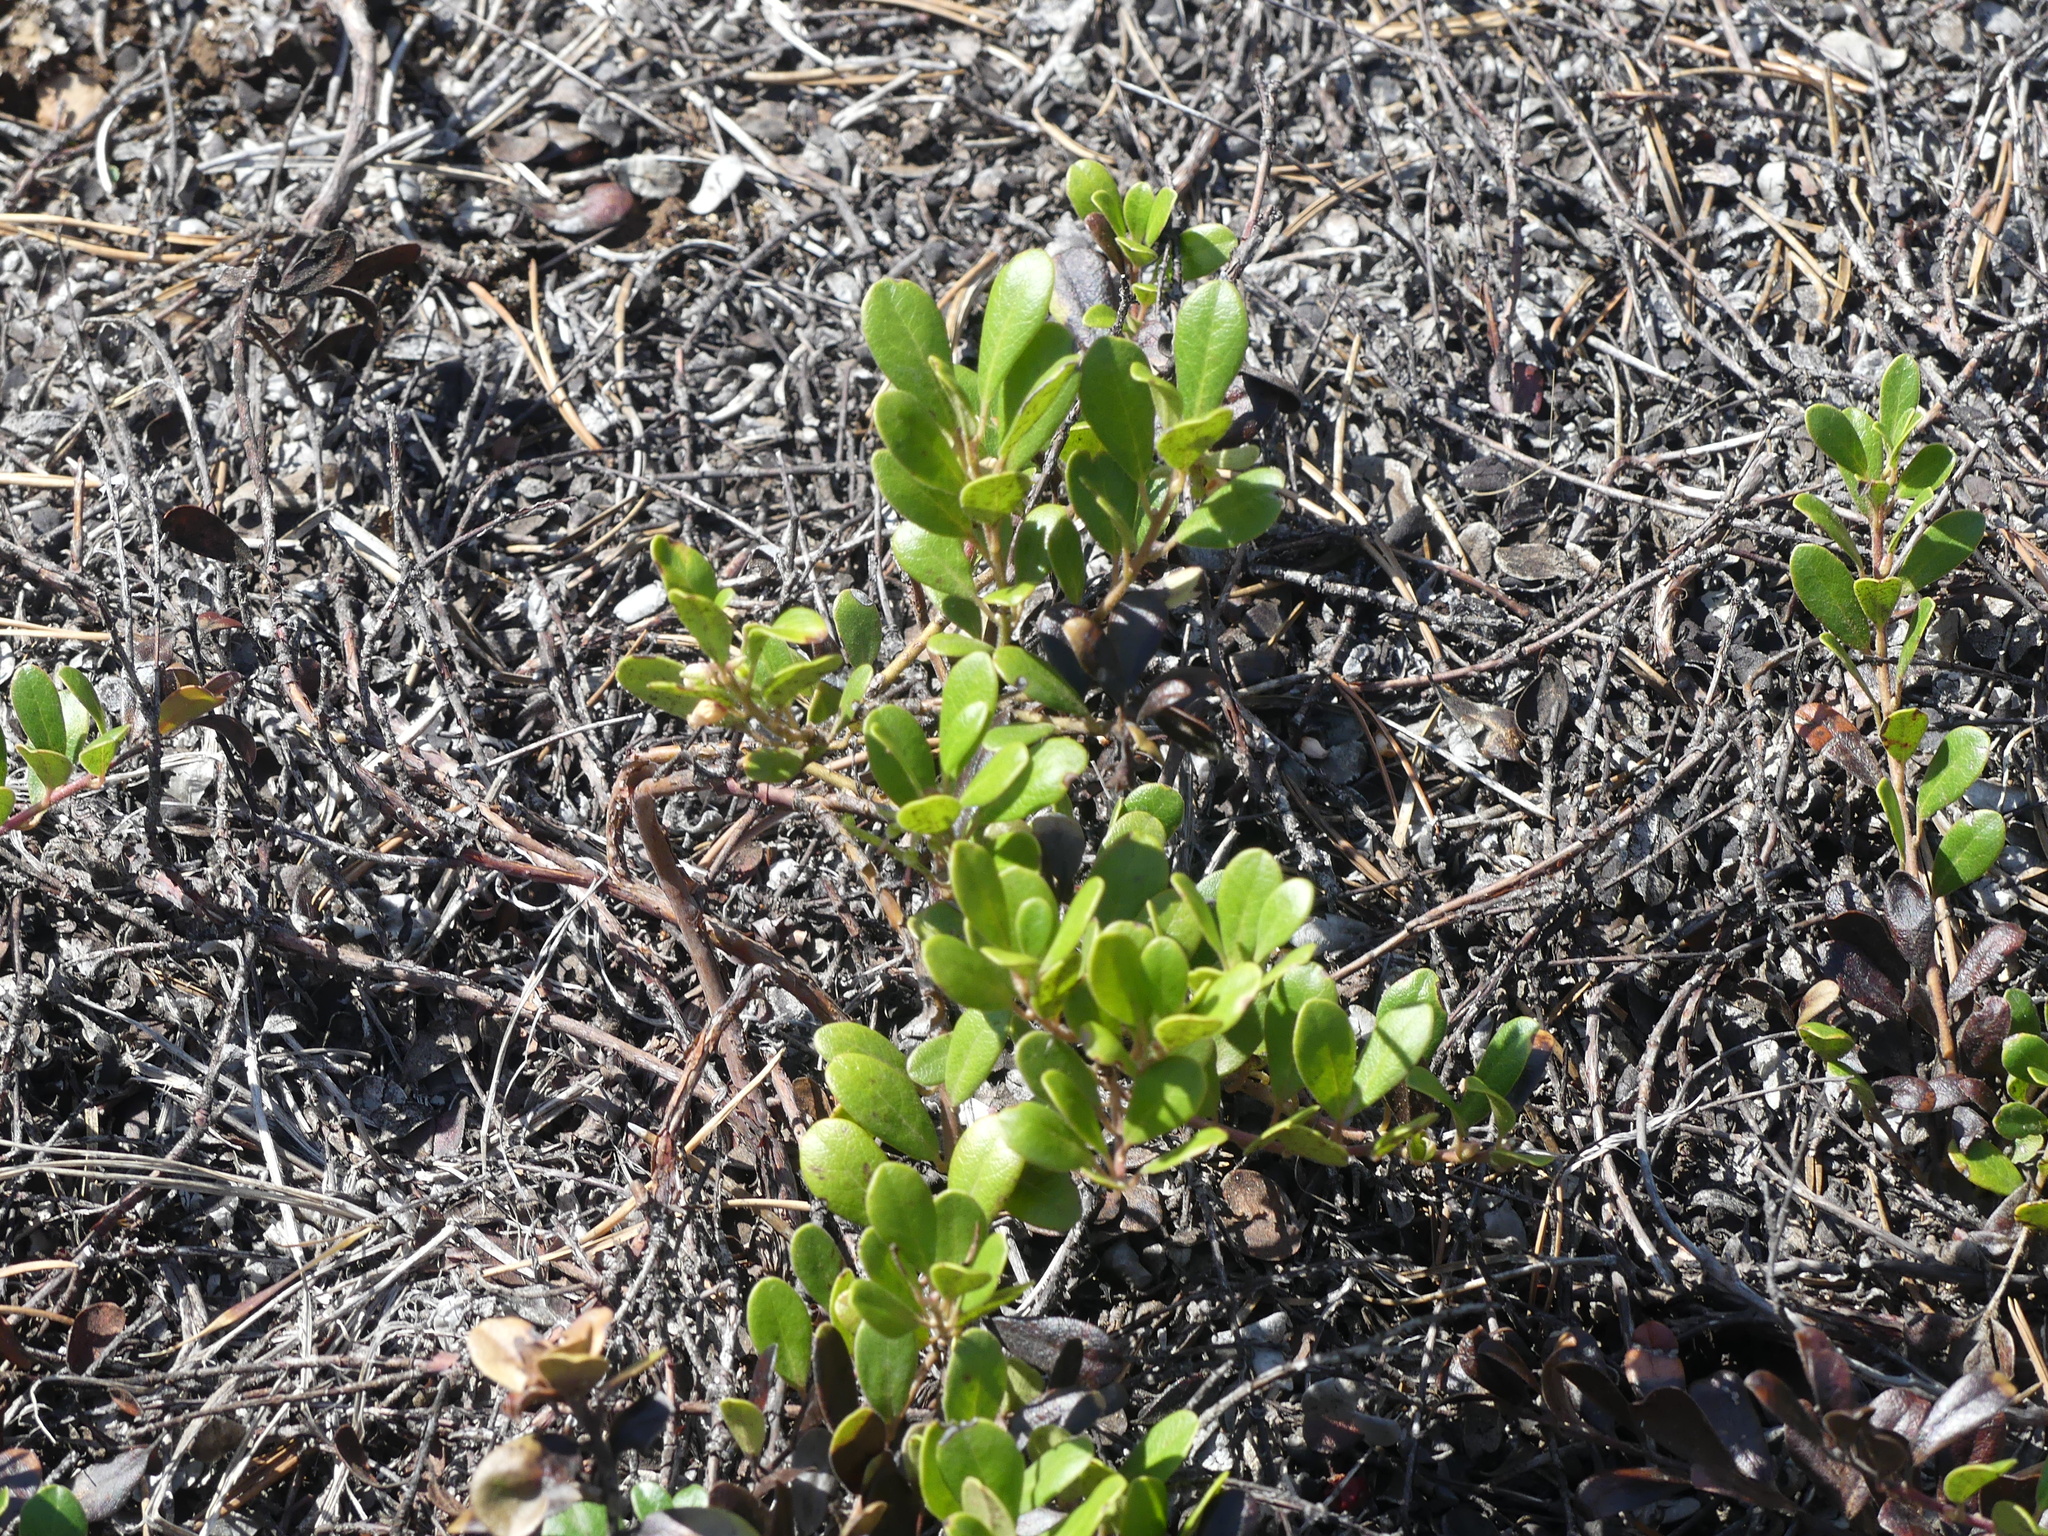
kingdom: Plantae
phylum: Tracheophyta
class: Magnoliopsida
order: Ericales
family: Ericaceae
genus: Arctostaphylos
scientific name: Arctostaphylos uva-ursi
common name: Bearberry
